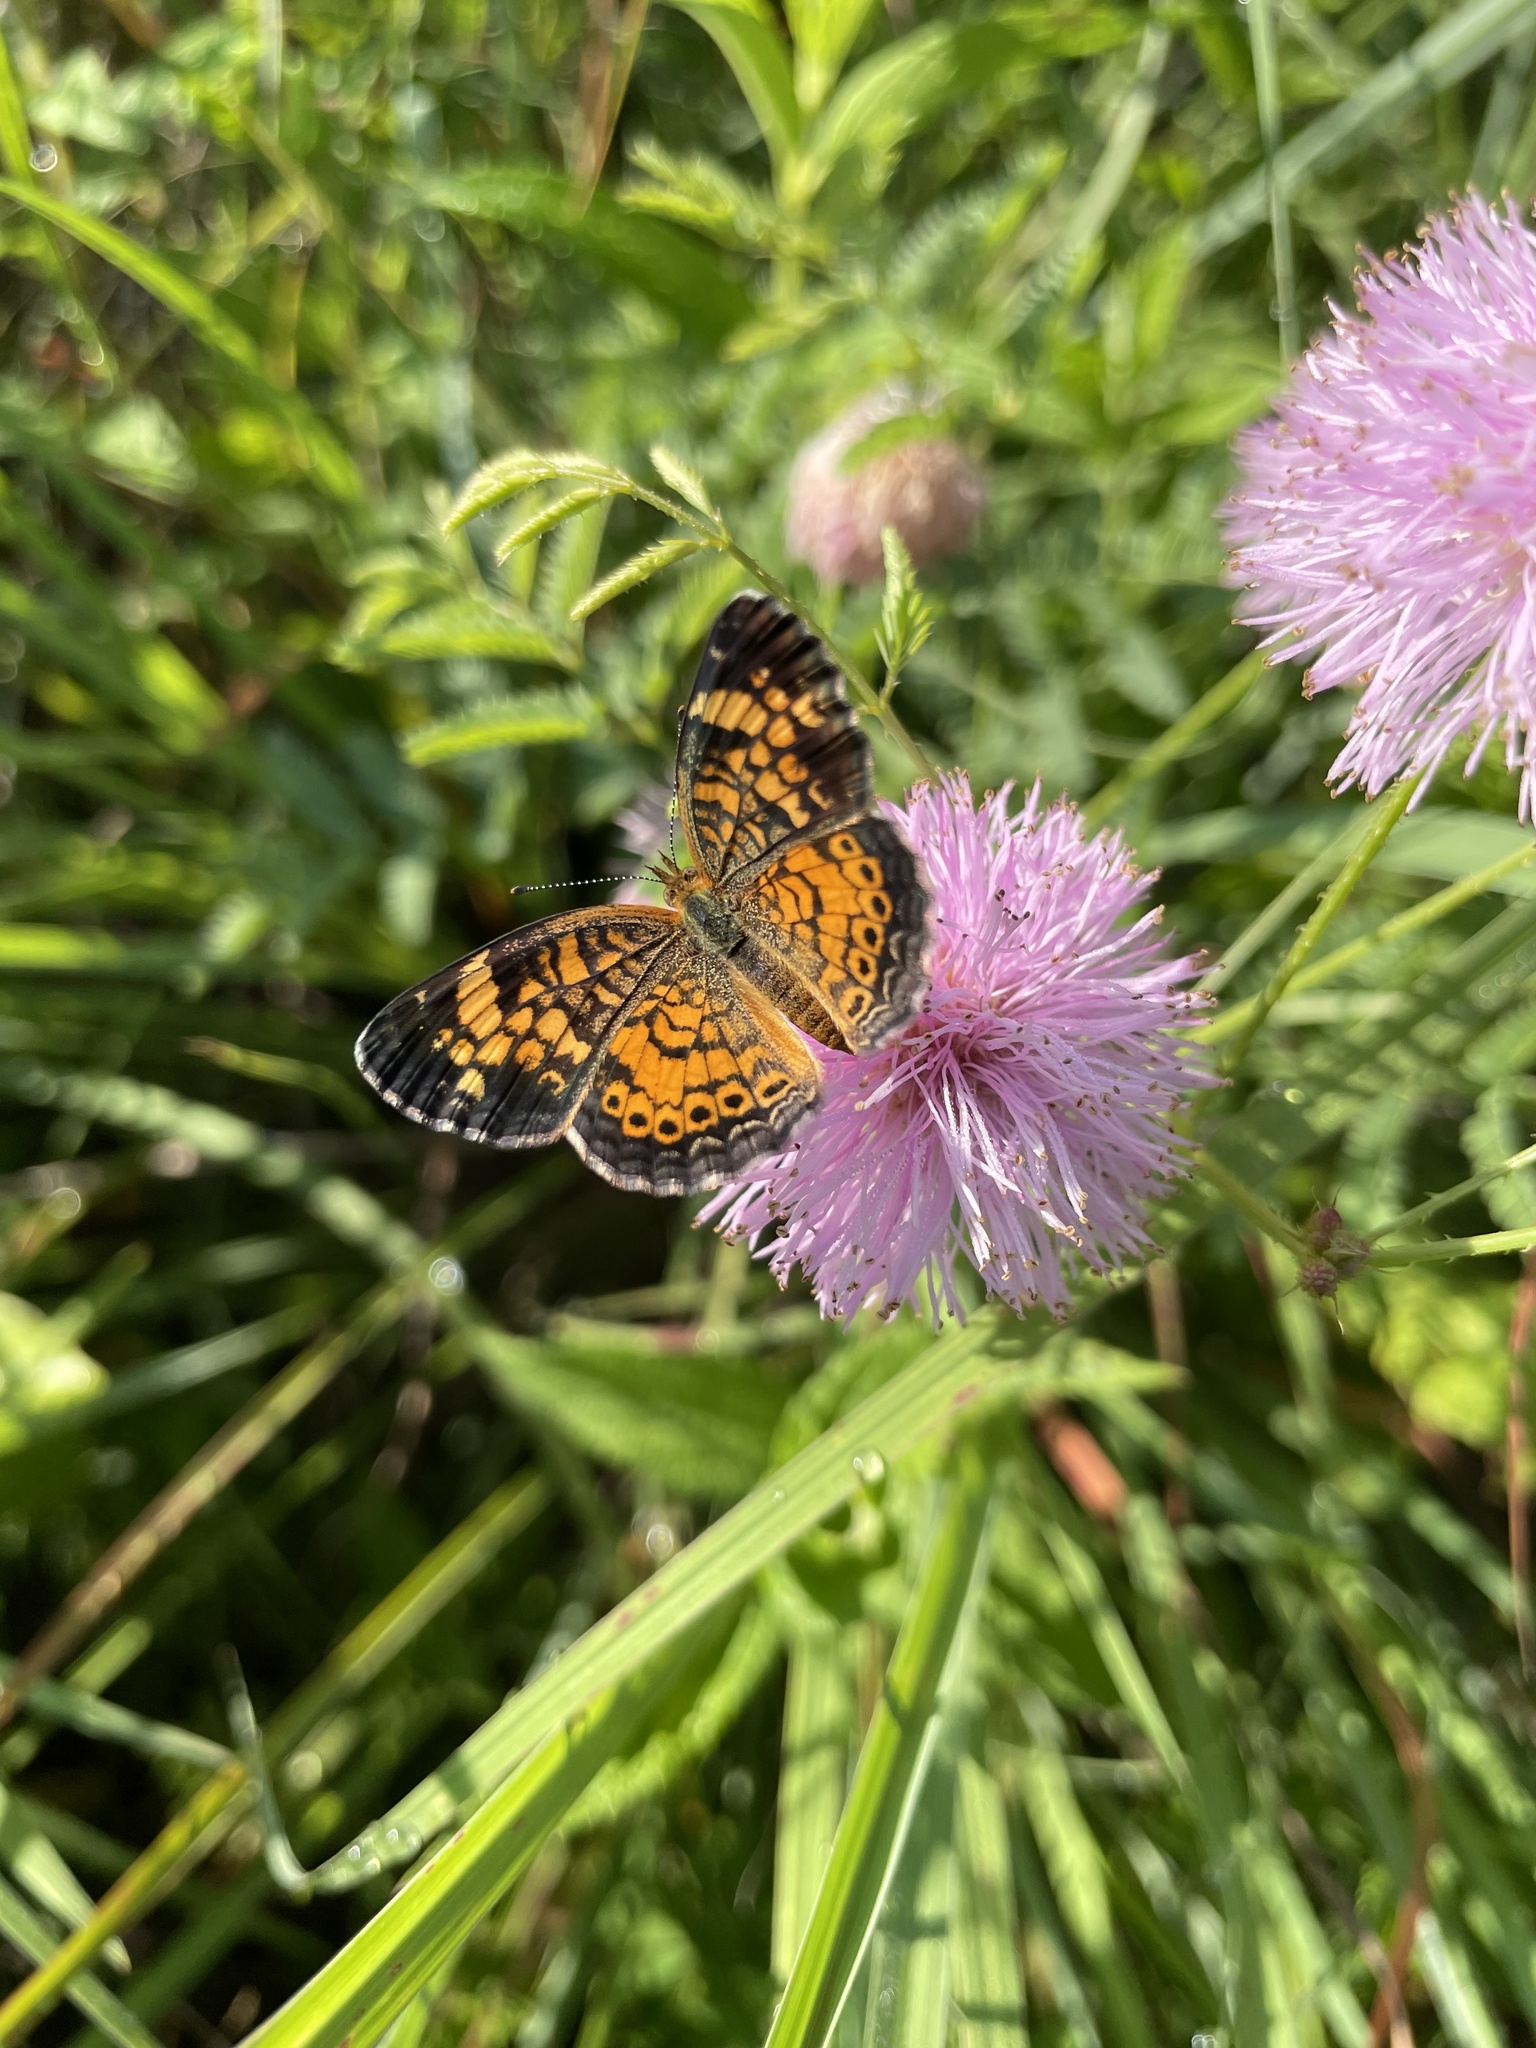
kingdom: Animalia
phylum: Arthropoda
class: Insecta
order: Lepidoptera
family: Nymphalidae
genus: Phyciodes
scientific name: Phyciodes tharos
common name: Pearl crescent
